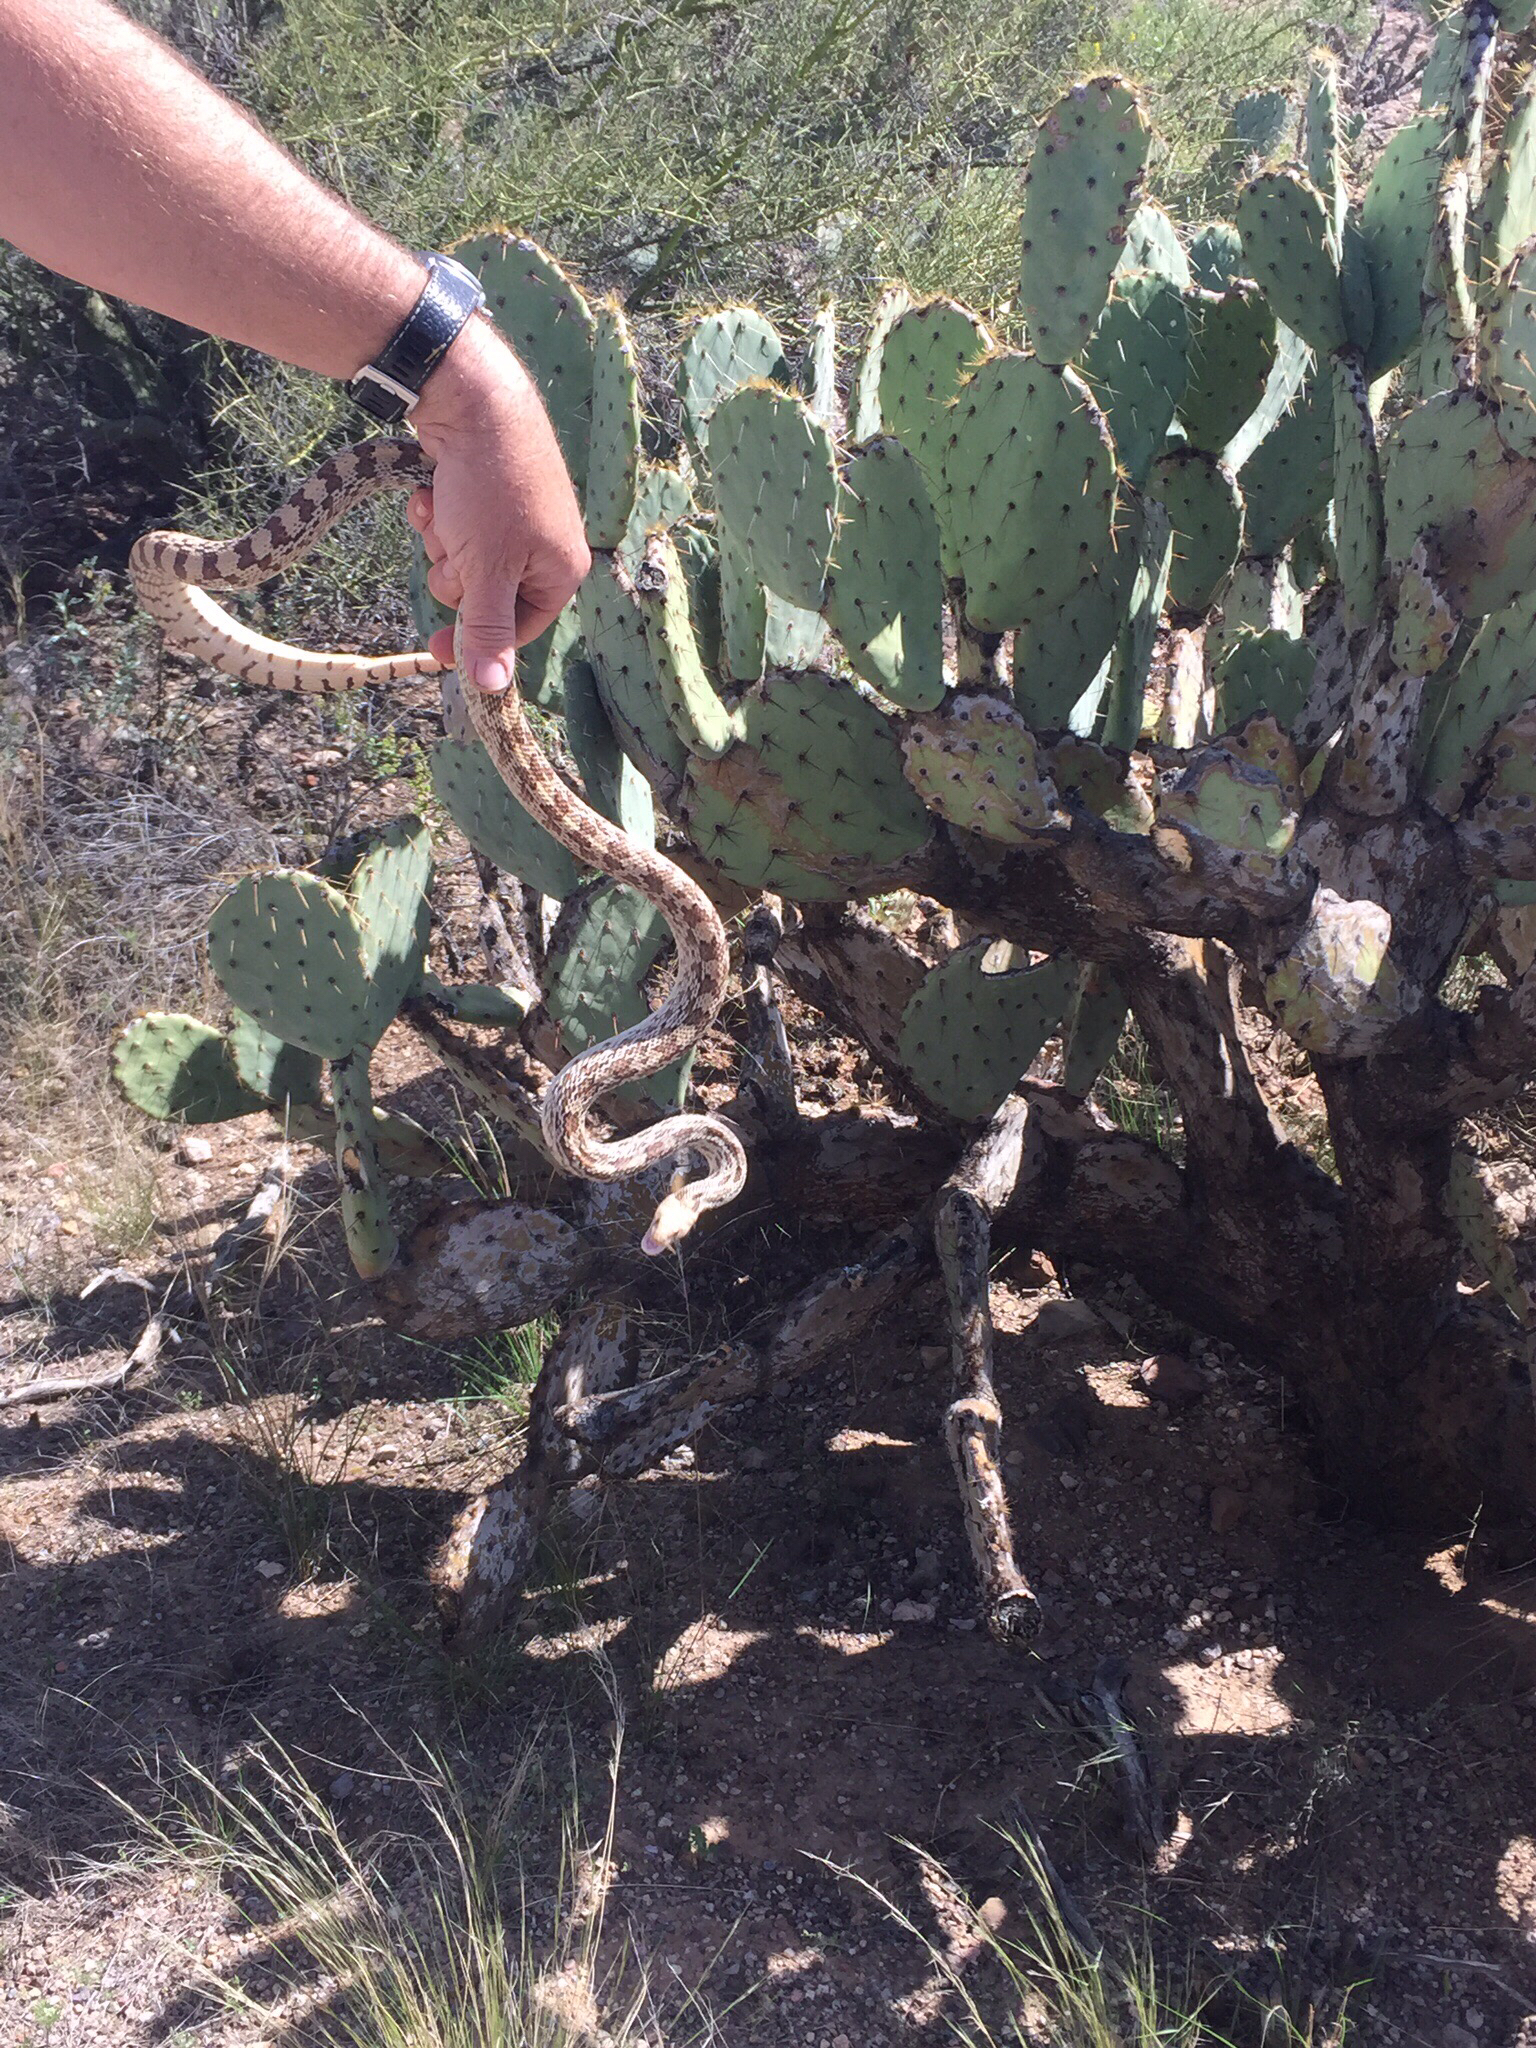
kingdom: Animalia
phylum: Chordata
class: Squamata
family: Colubridae
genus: Pituophis
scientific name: Pituophis catenifer
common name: Gopher snake
